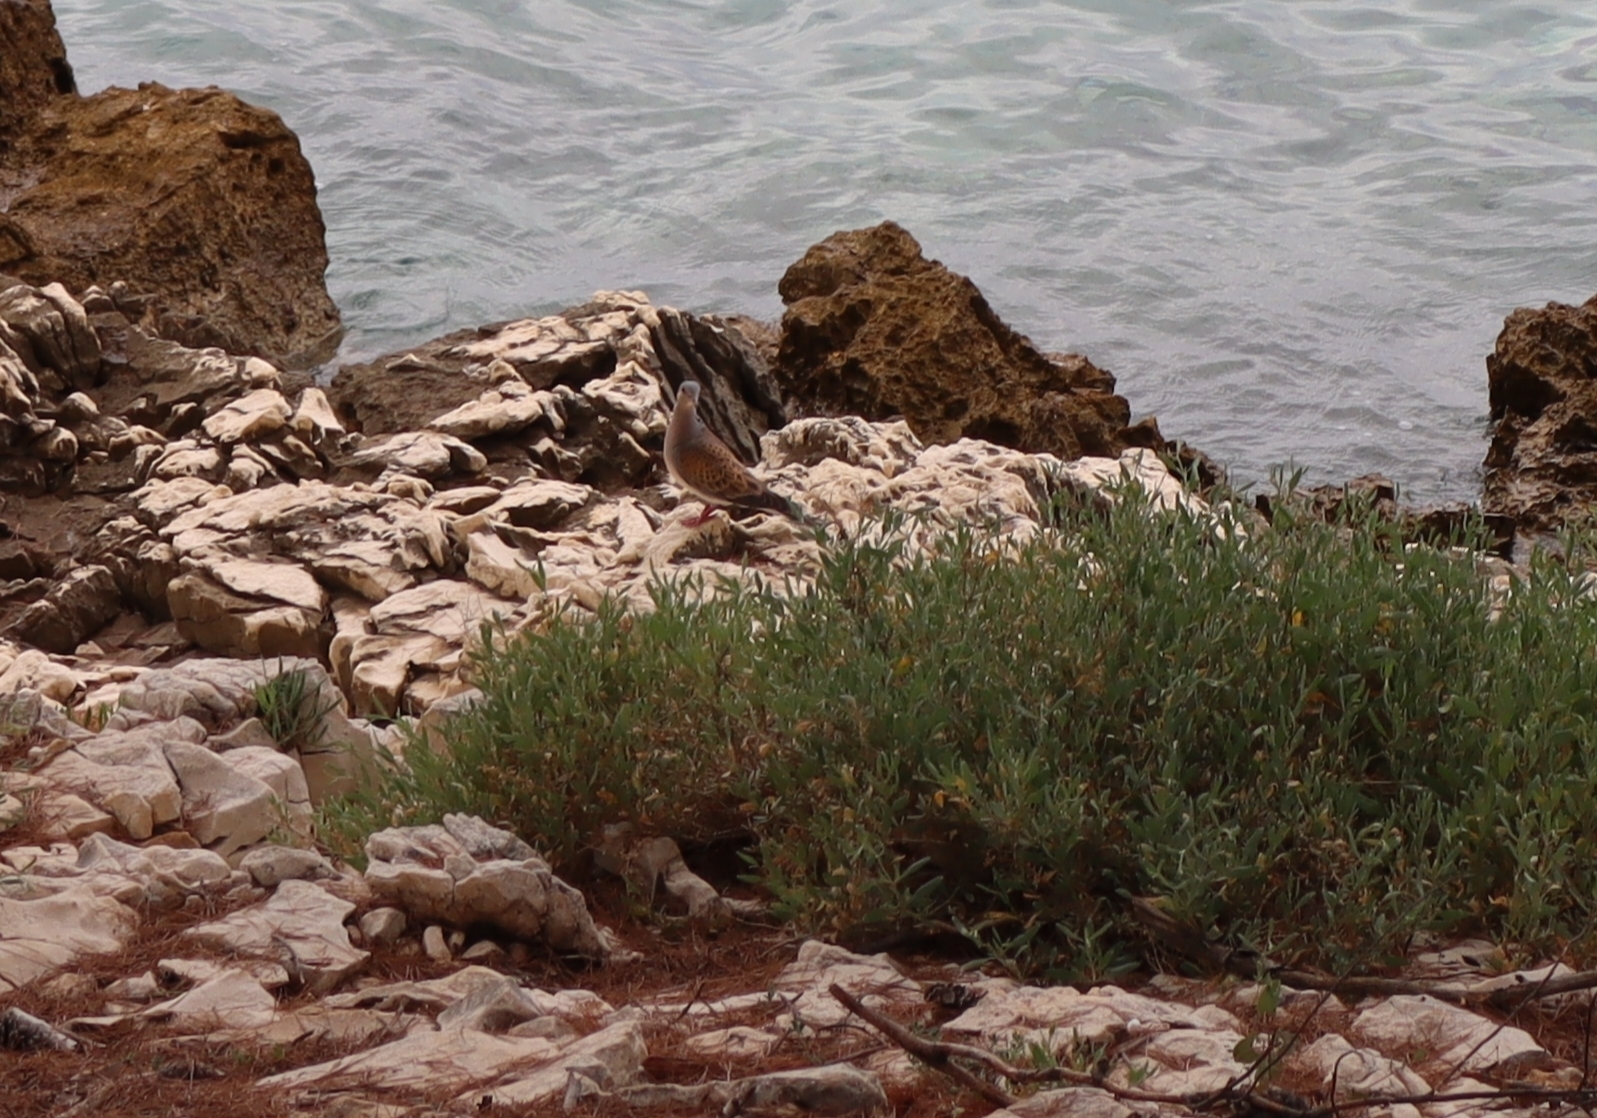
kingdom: Animalia
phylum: Chordata
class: Aves
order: Columbiformes
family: Columbidae
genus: Streptopelia
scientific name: Streptopelia turtur
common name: European turtle dove
